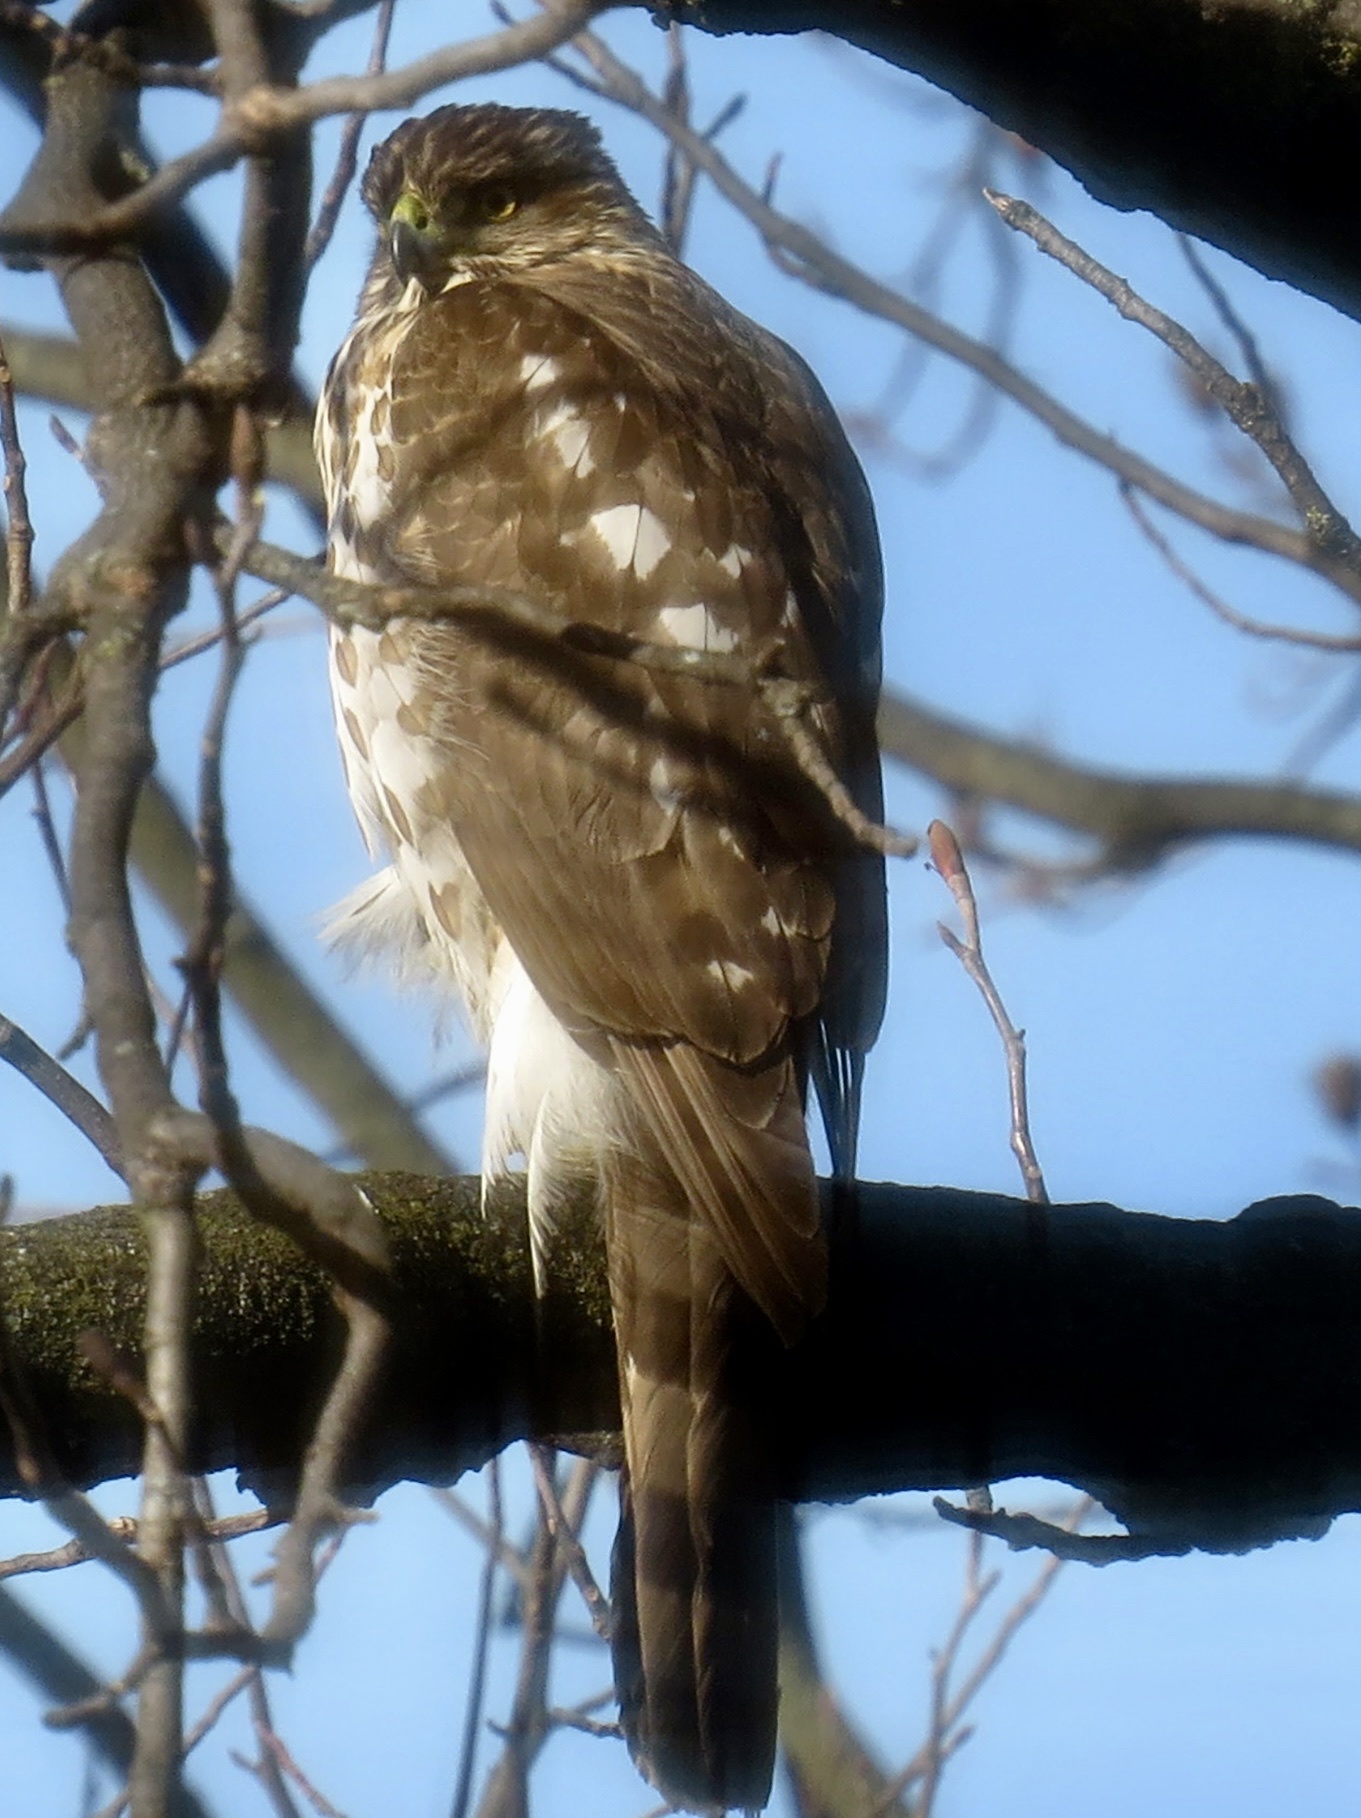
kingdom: Animalia
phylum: Chordata
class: Aves
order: Accipitriformes
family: Accipitridae
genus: Accipiter
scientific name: Accipiter cooperii
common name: Cooper's hawk
